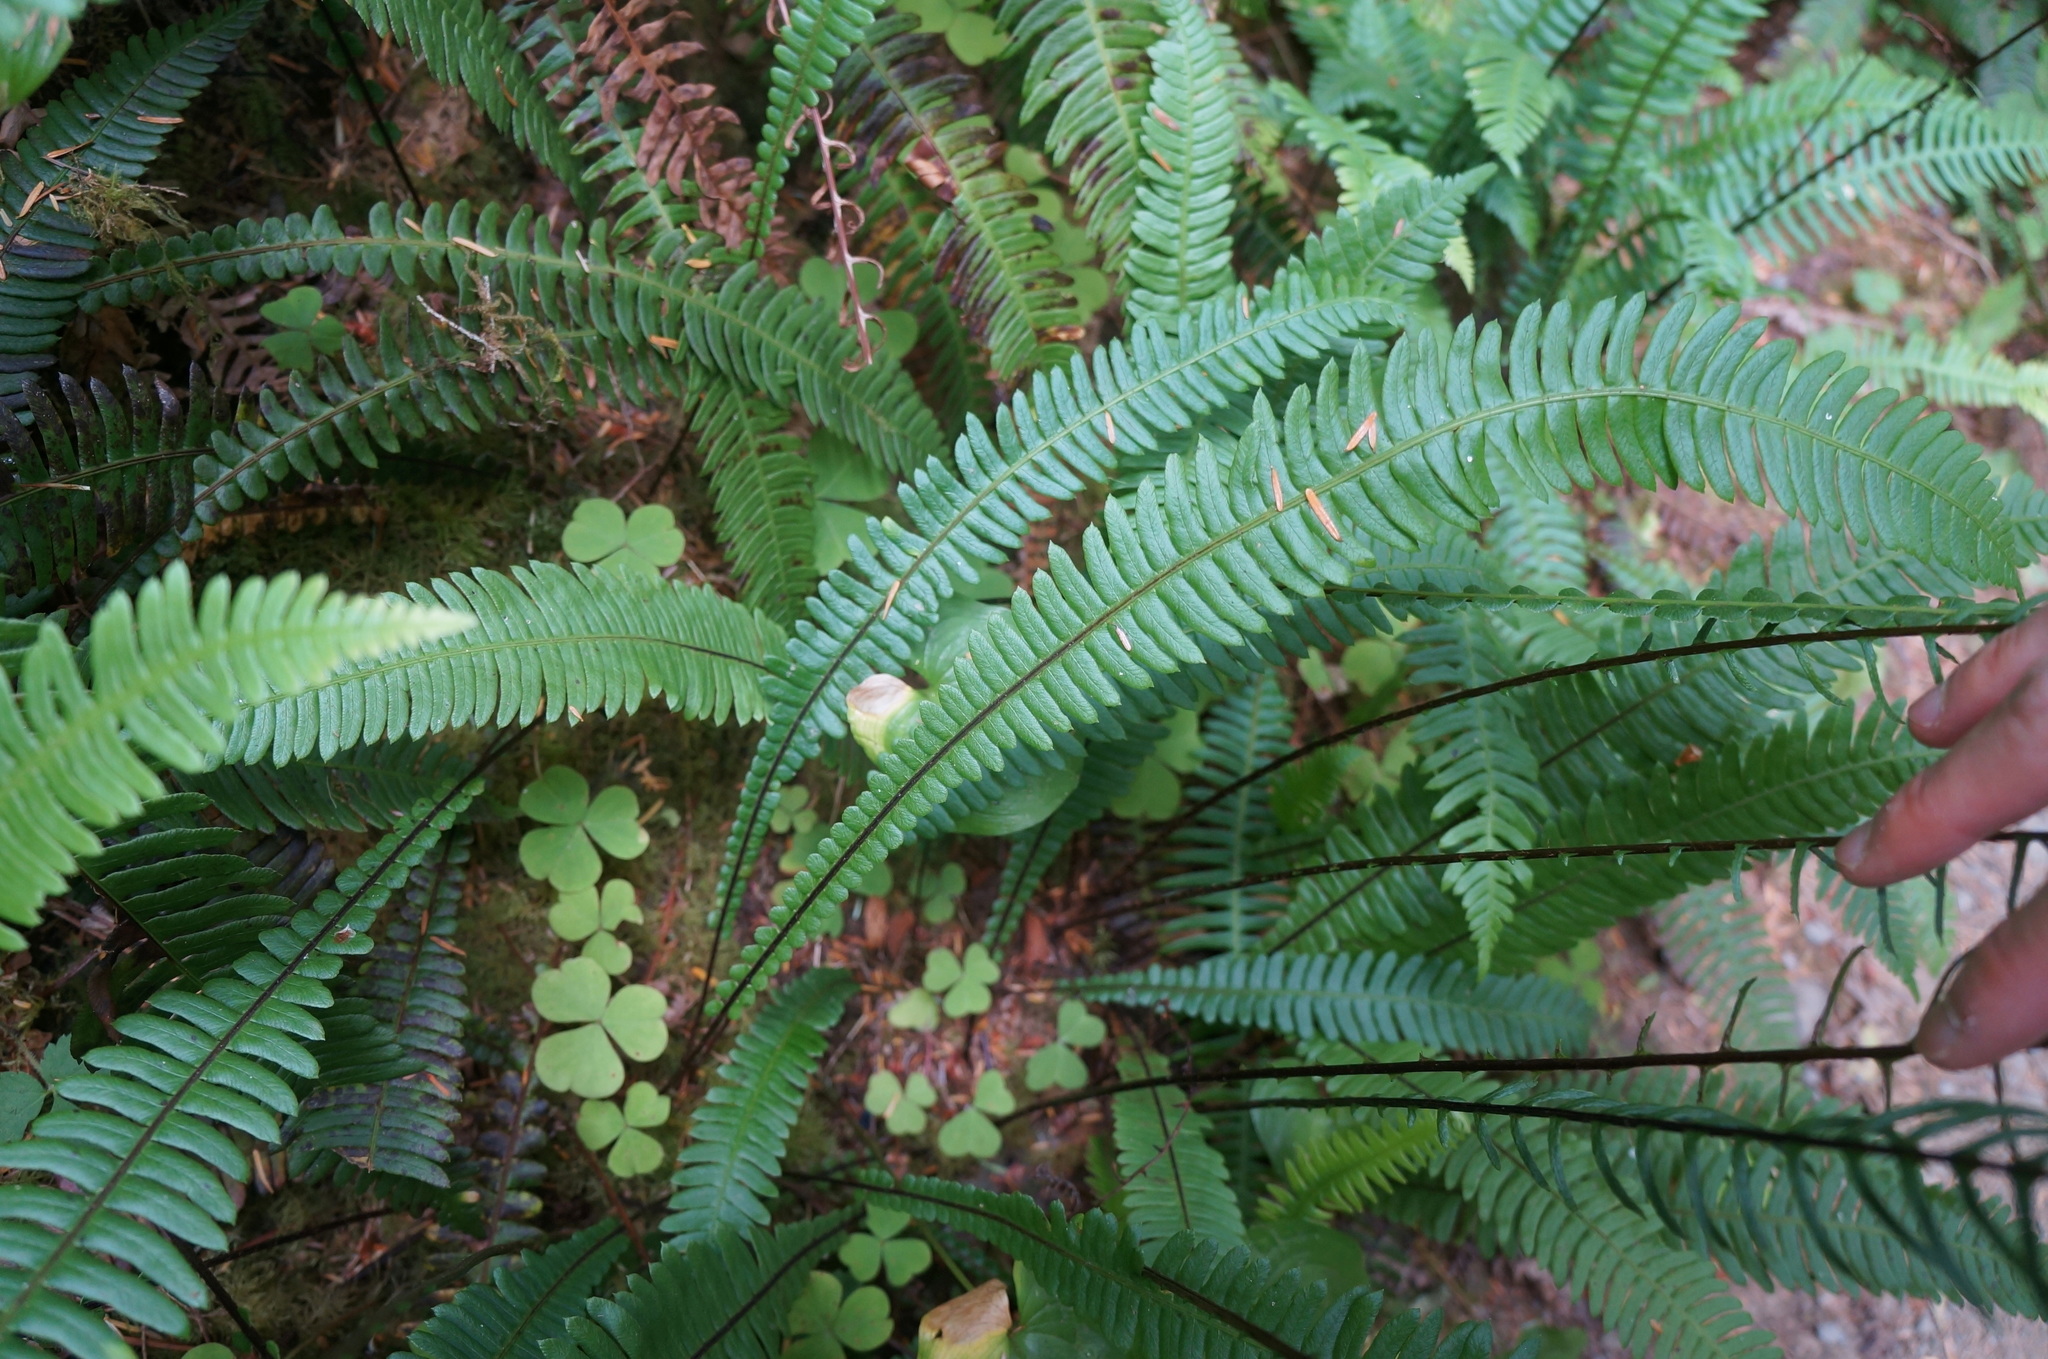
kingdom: Plantae
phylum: Tracheophyta
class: Polypodiopsida
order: Polypodiales
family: Blechnaceae
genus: Struthiopteris
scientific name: Struthiopteris spicant
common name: Deer fern
